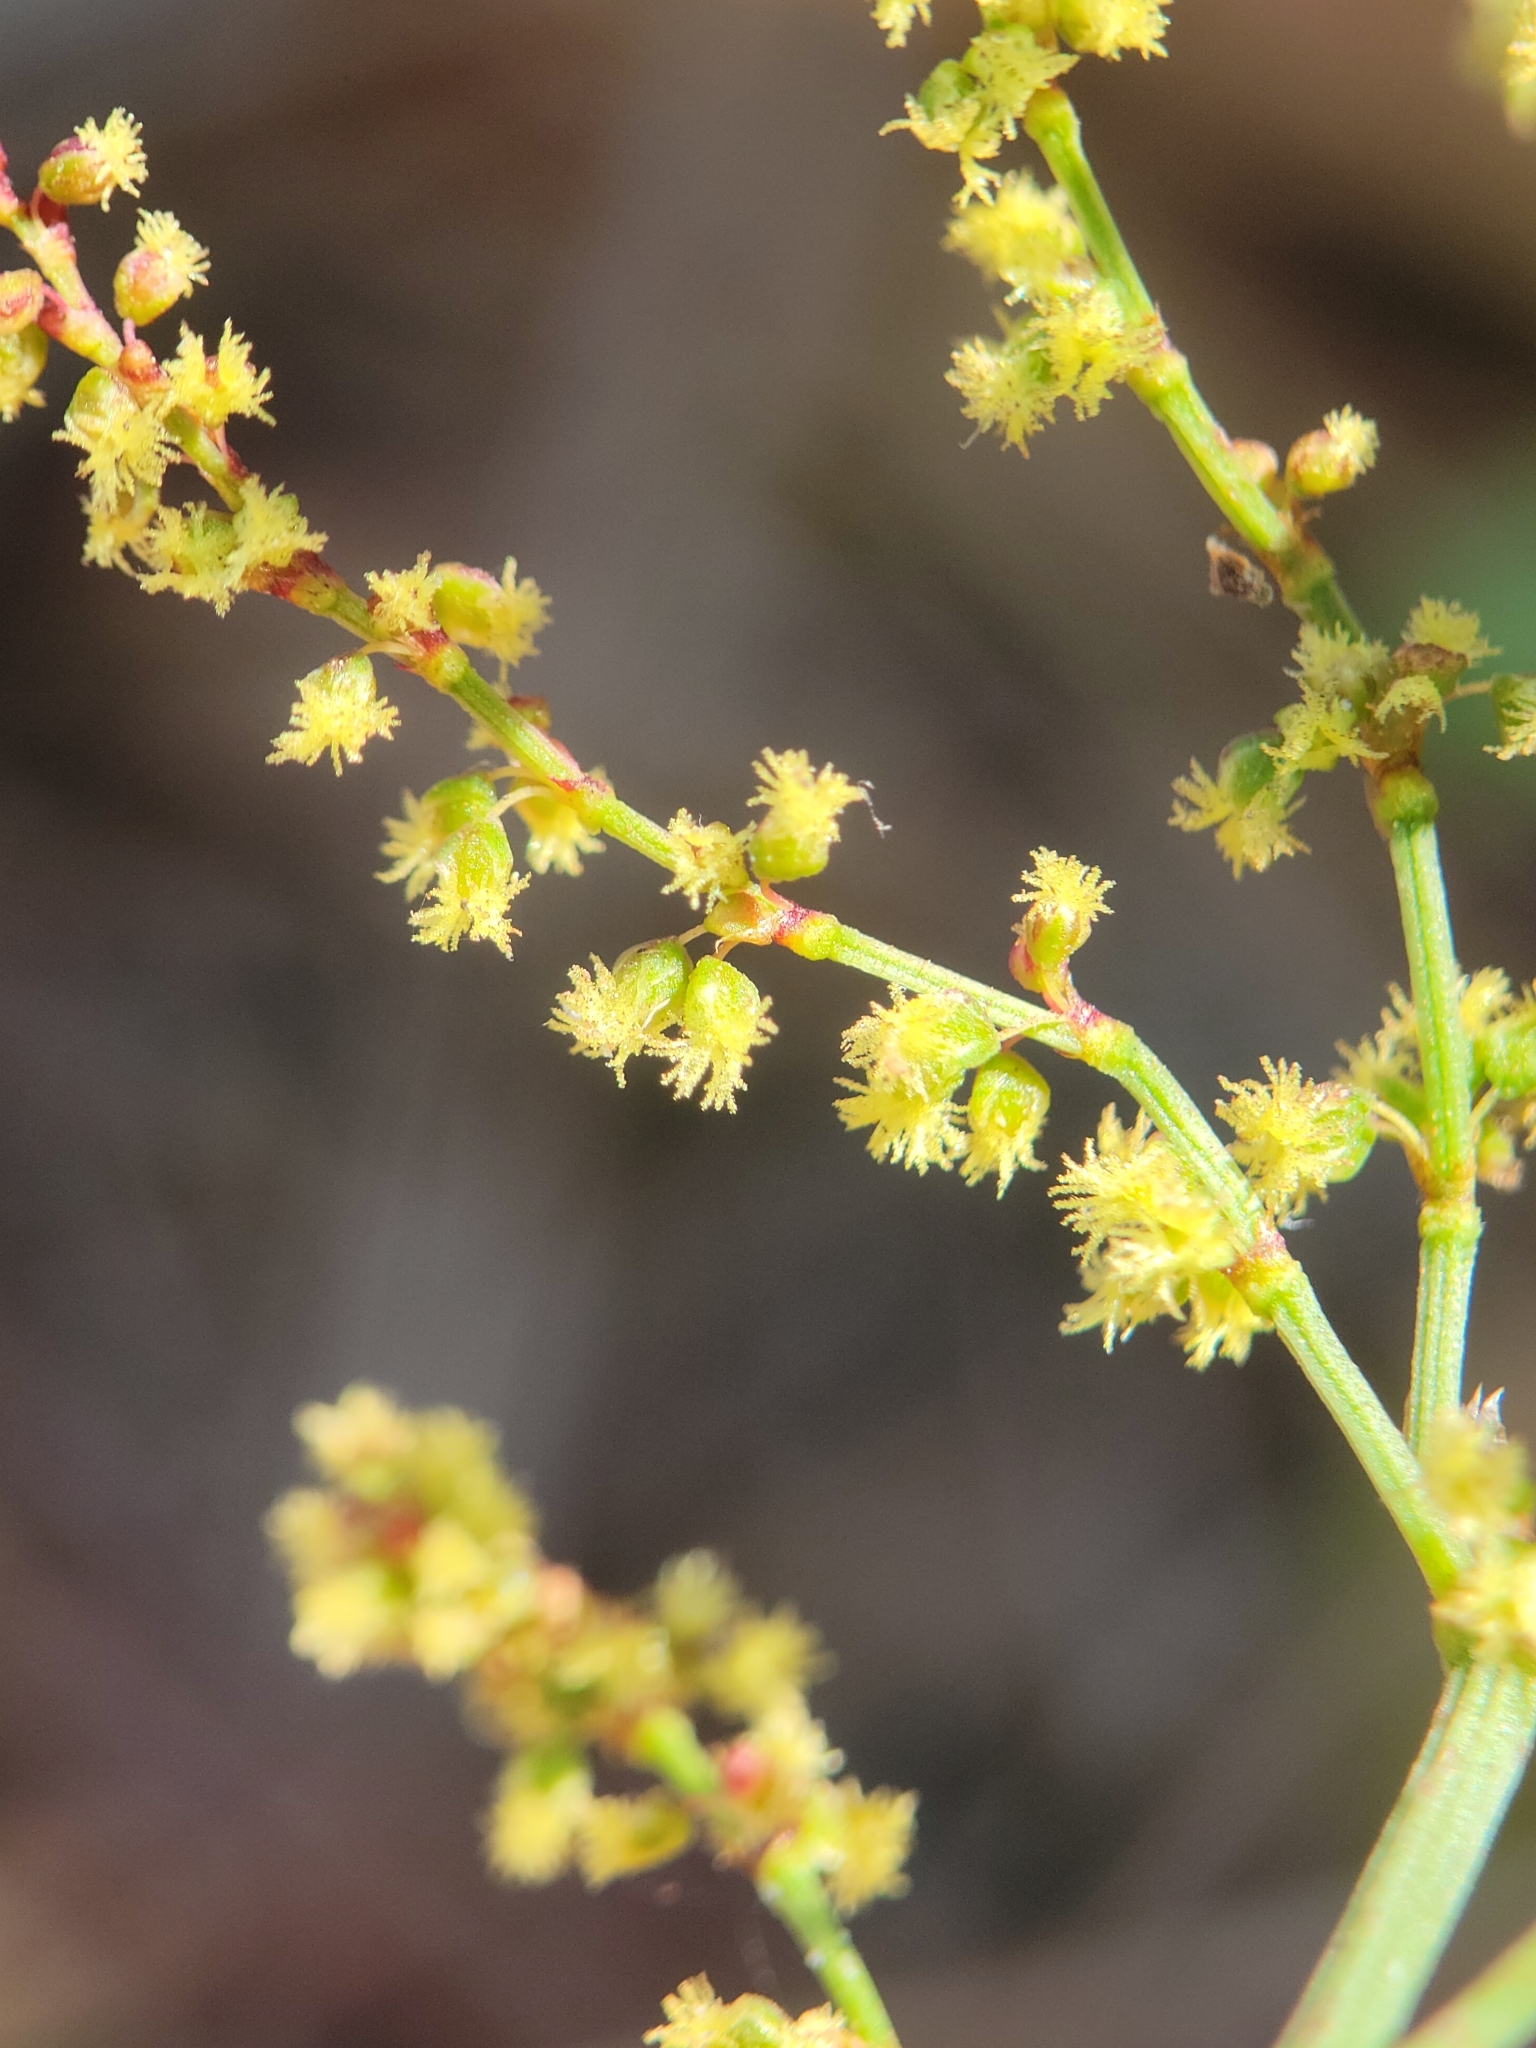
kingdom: Plantae
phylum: Tracheophyta
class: Magnoliopsida
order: Caryophyllales
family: Polygonaceae
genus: Rumex
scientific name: Rumex acetosella
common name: Common sheep sorrel
